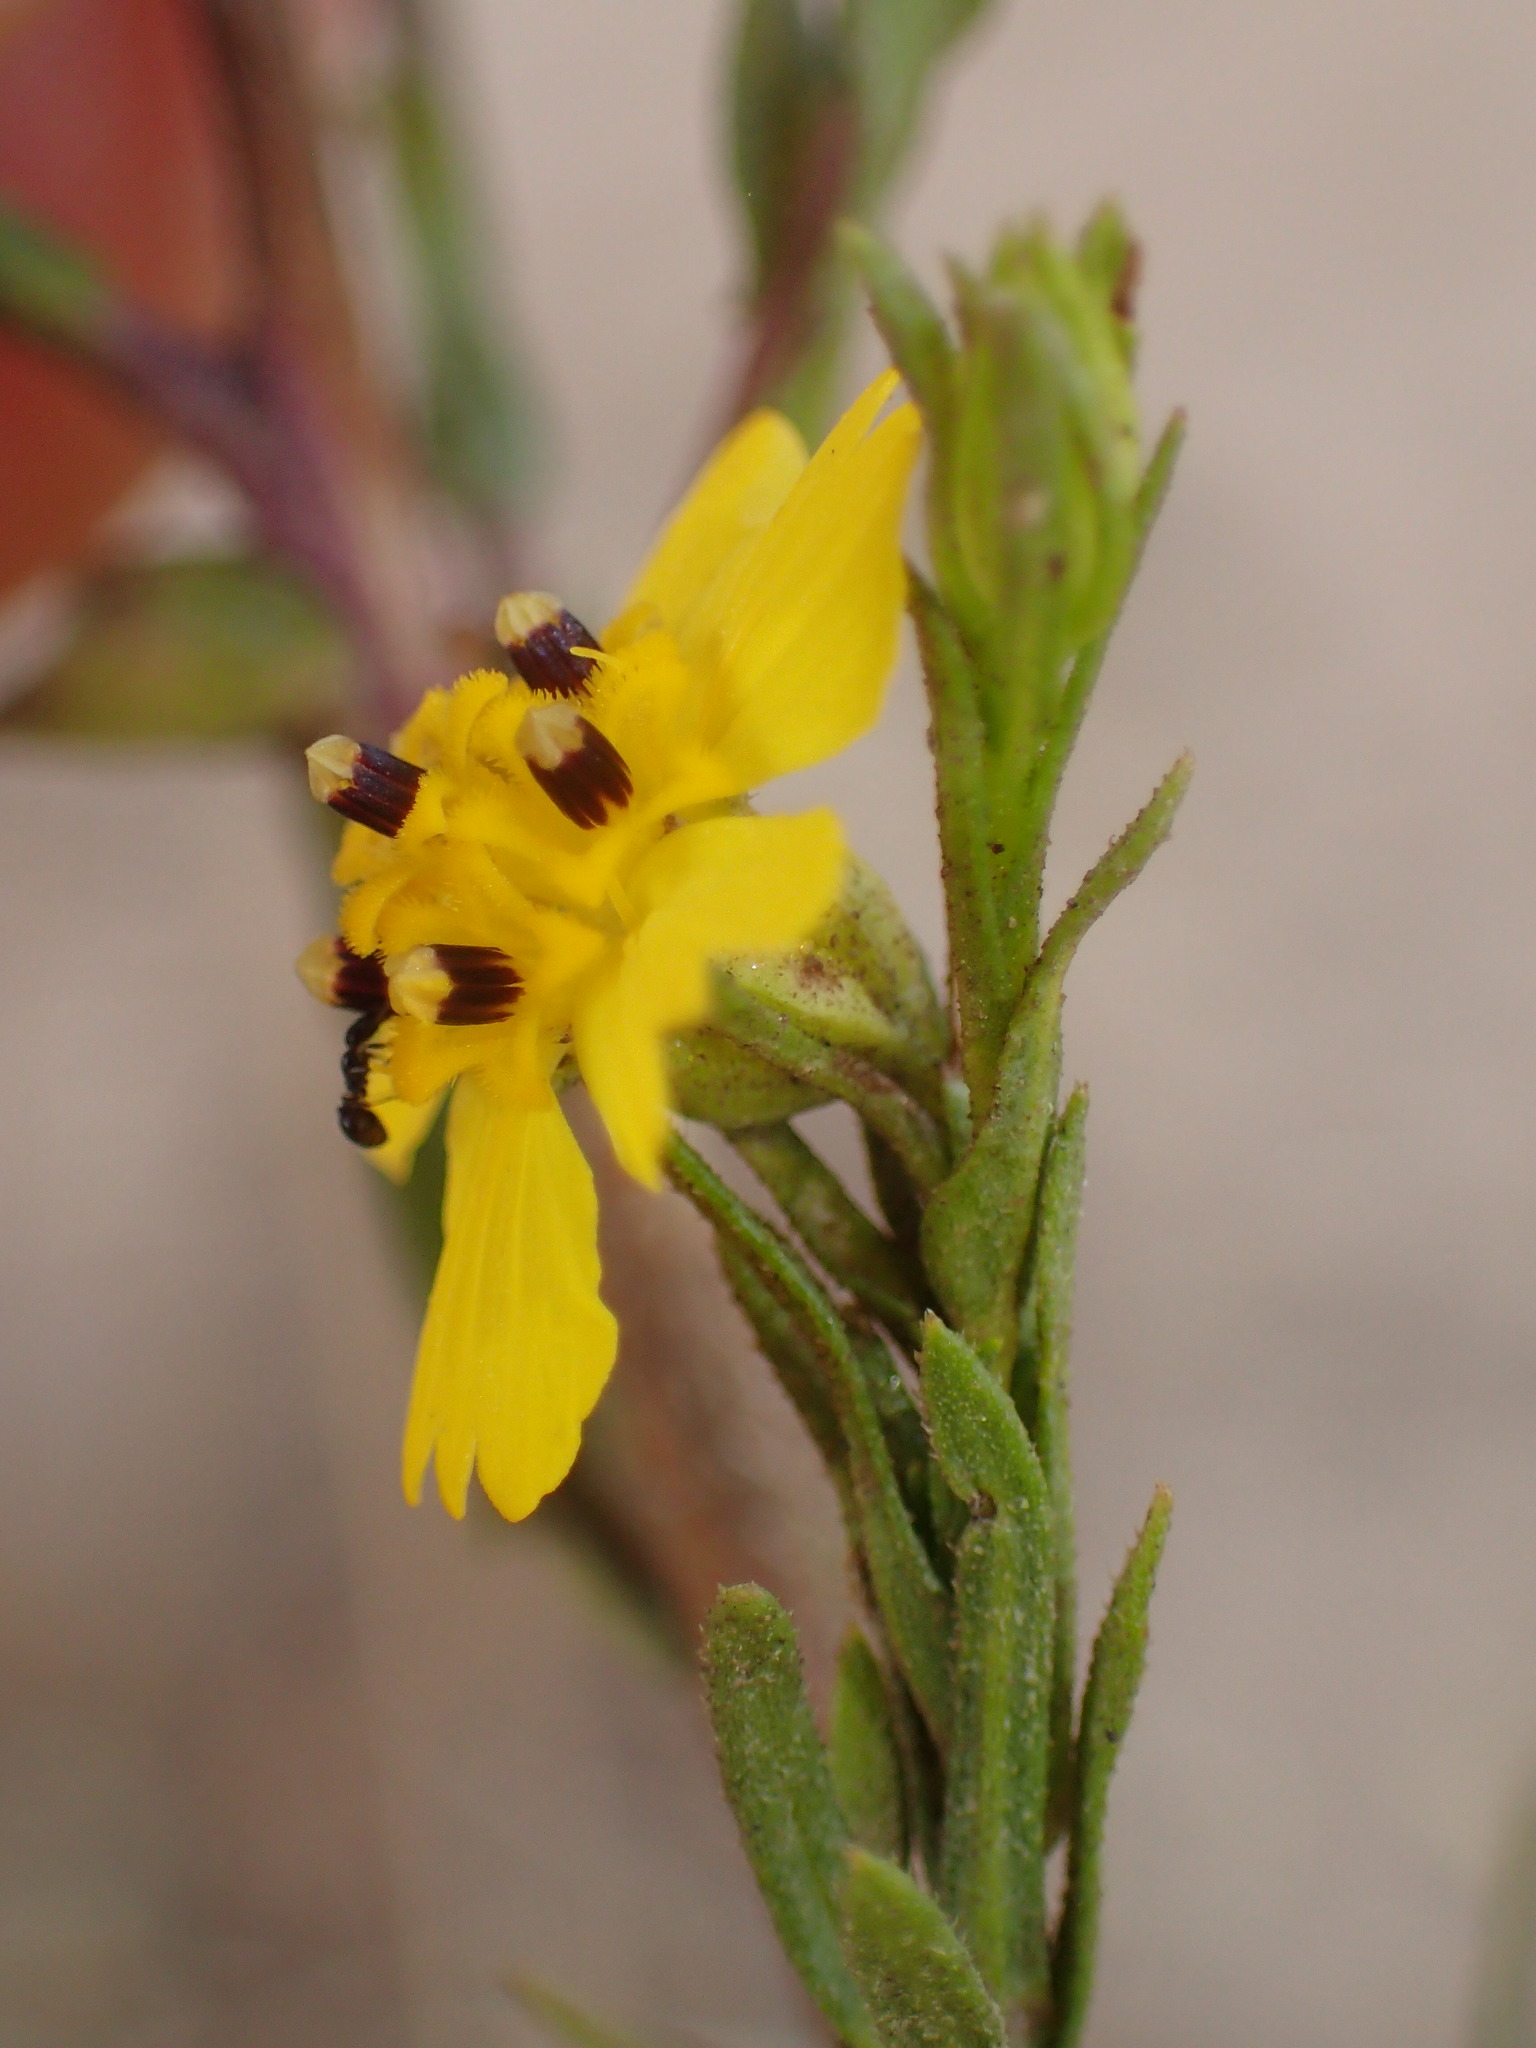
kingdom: Plantae
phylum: Tracheophyta
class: Magnoliopsida
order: Asterales
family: Asteraceae
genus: Deinandra
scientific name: Deinandra fasciculata
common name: Clustered tarweed
